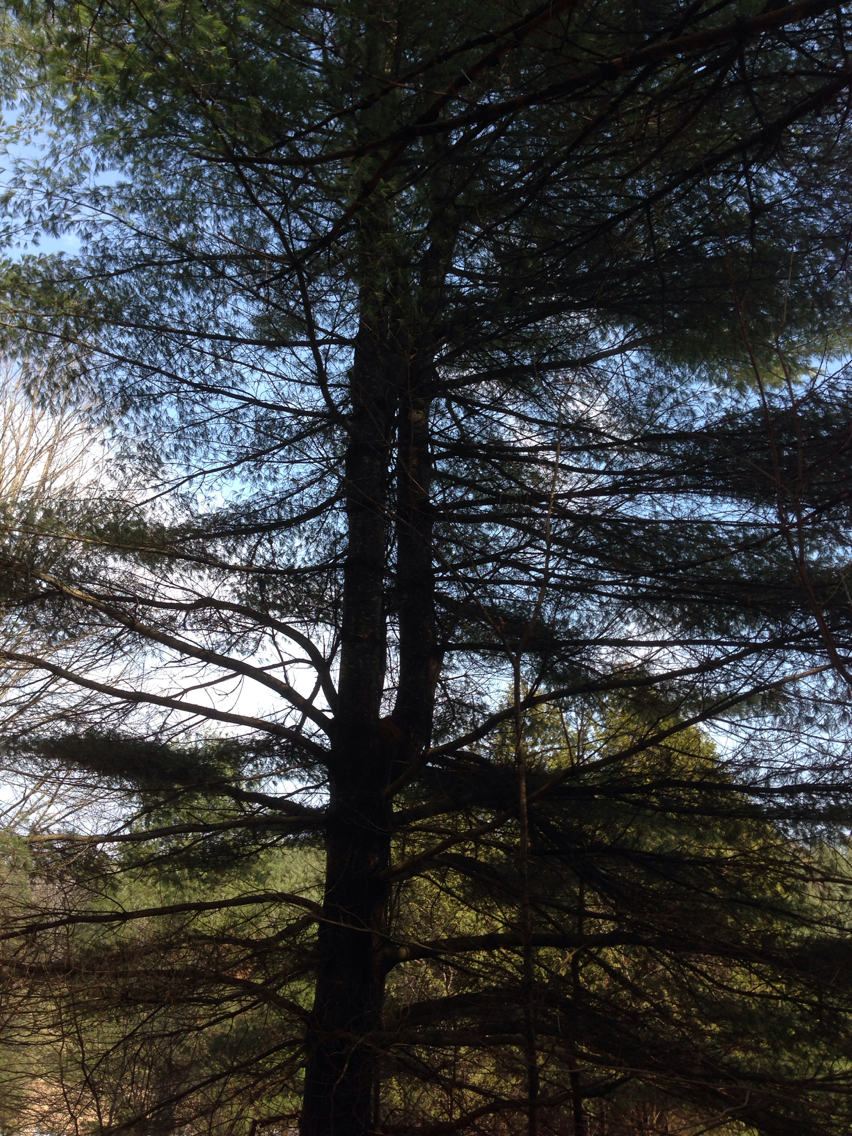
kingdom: Plantae
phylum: Tracheophyta
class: Pinopsida
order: Pinales
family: Pinaceae
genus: Pinus
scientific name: Pinus strobus
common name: Weymouth pine
